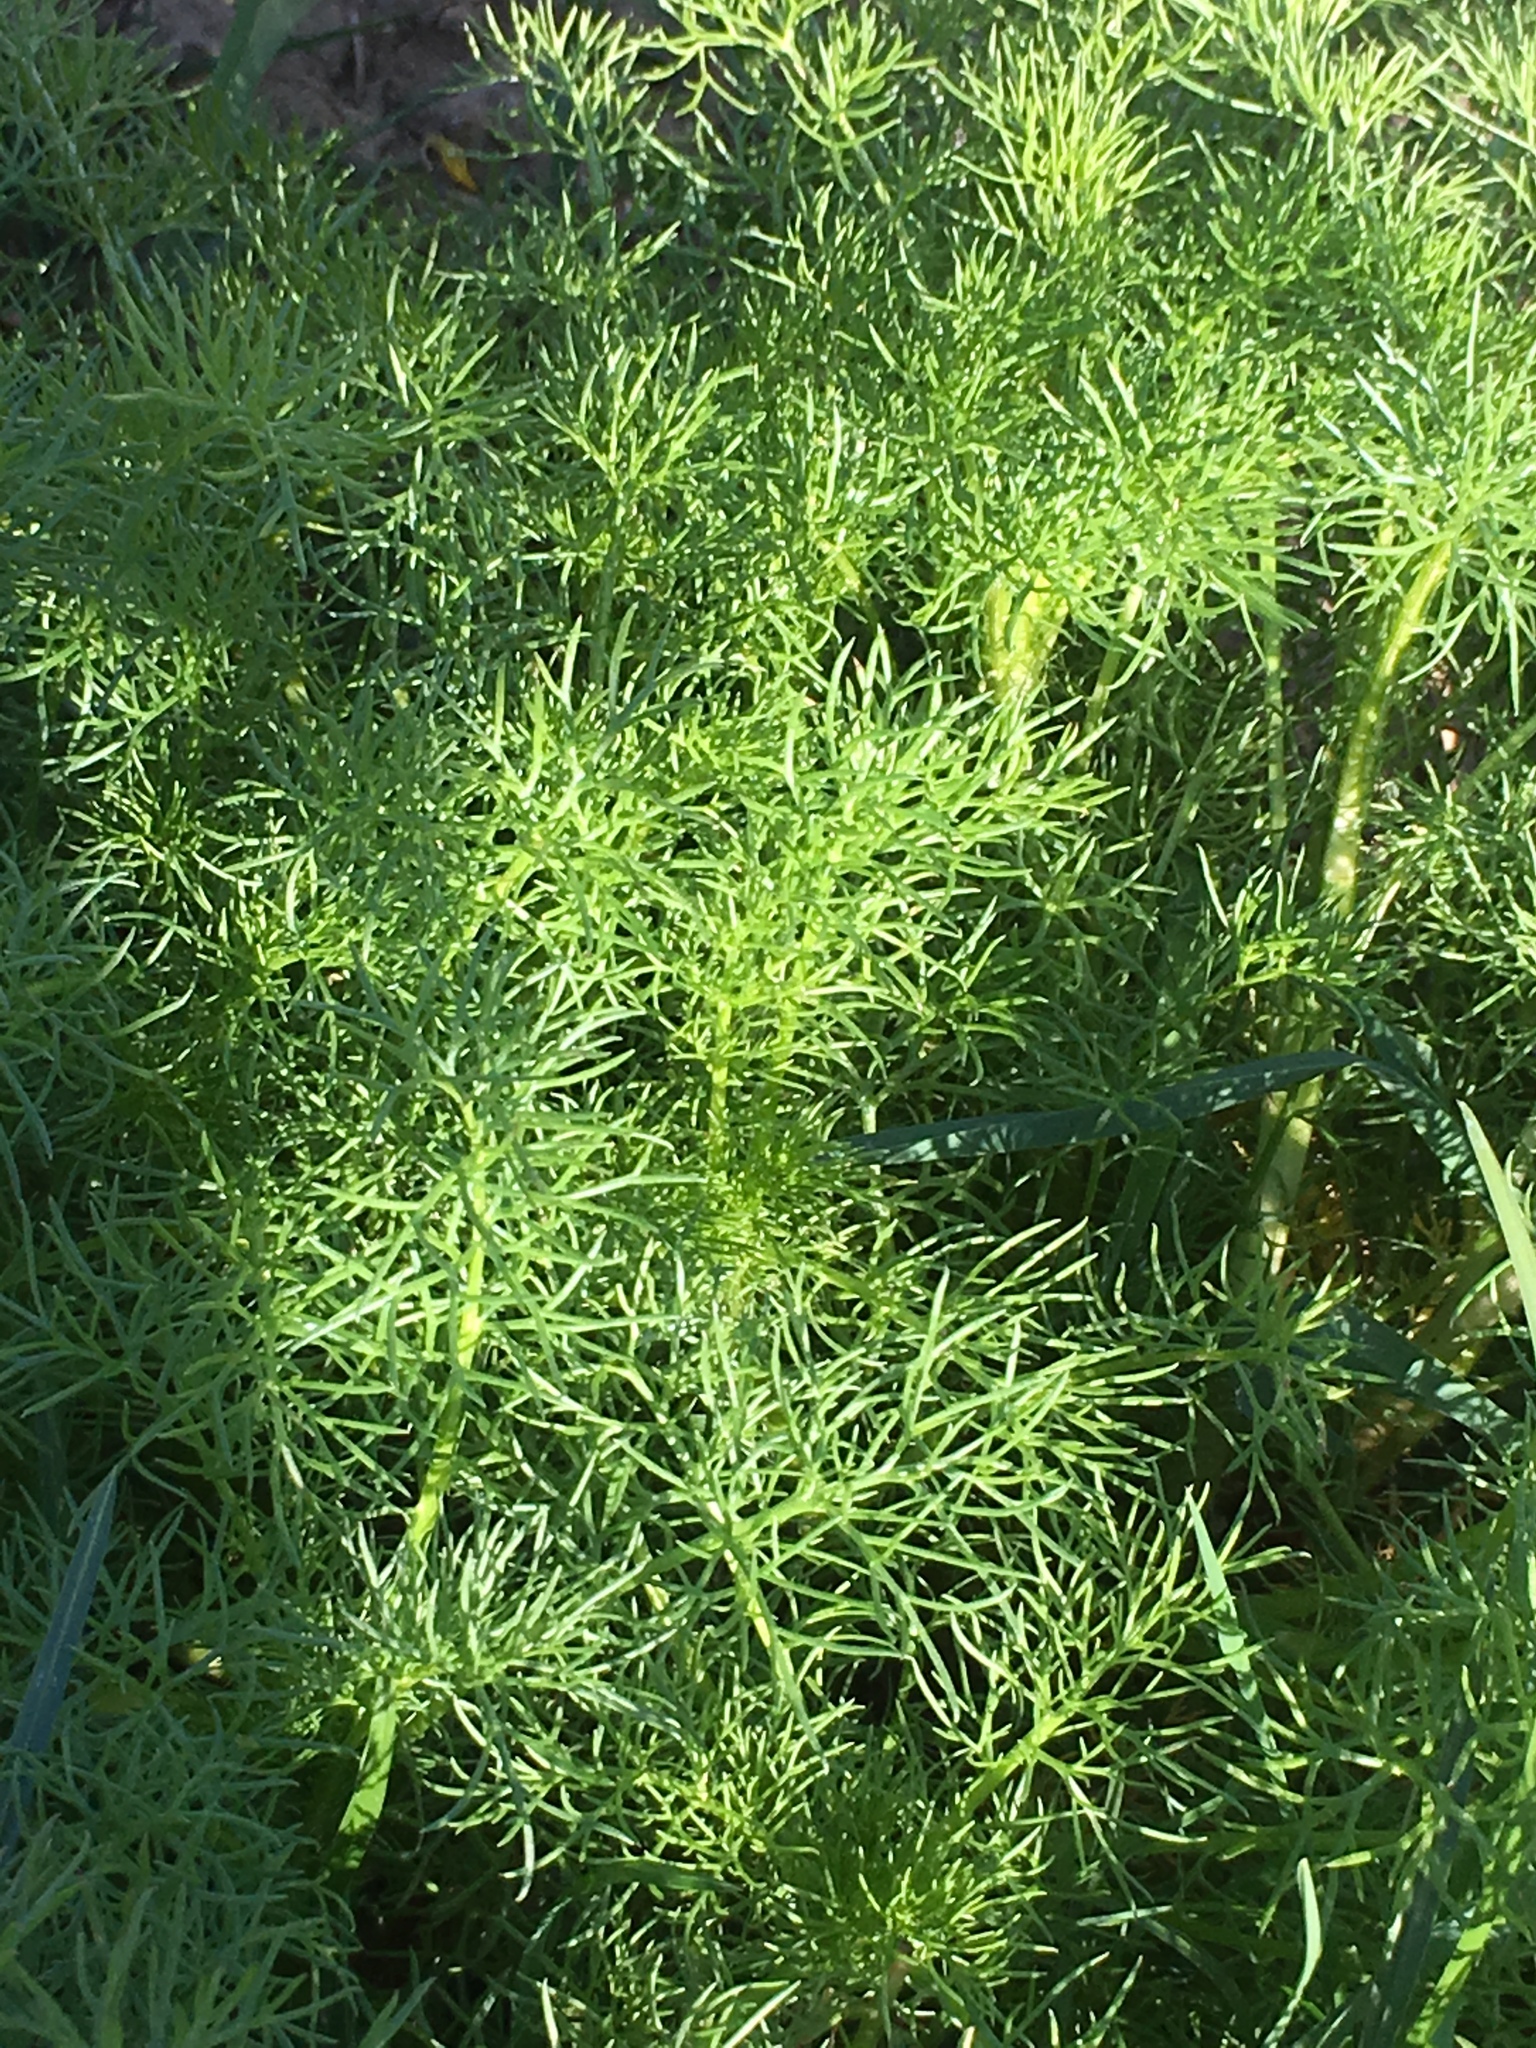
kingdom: Plantae
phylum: Tracheophyta
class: Magnoliopsida
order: Asterales
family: Asteraceae
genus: Tripleurospermum
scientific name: Tripleurospermum inodorum
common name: Scentless mayweed
